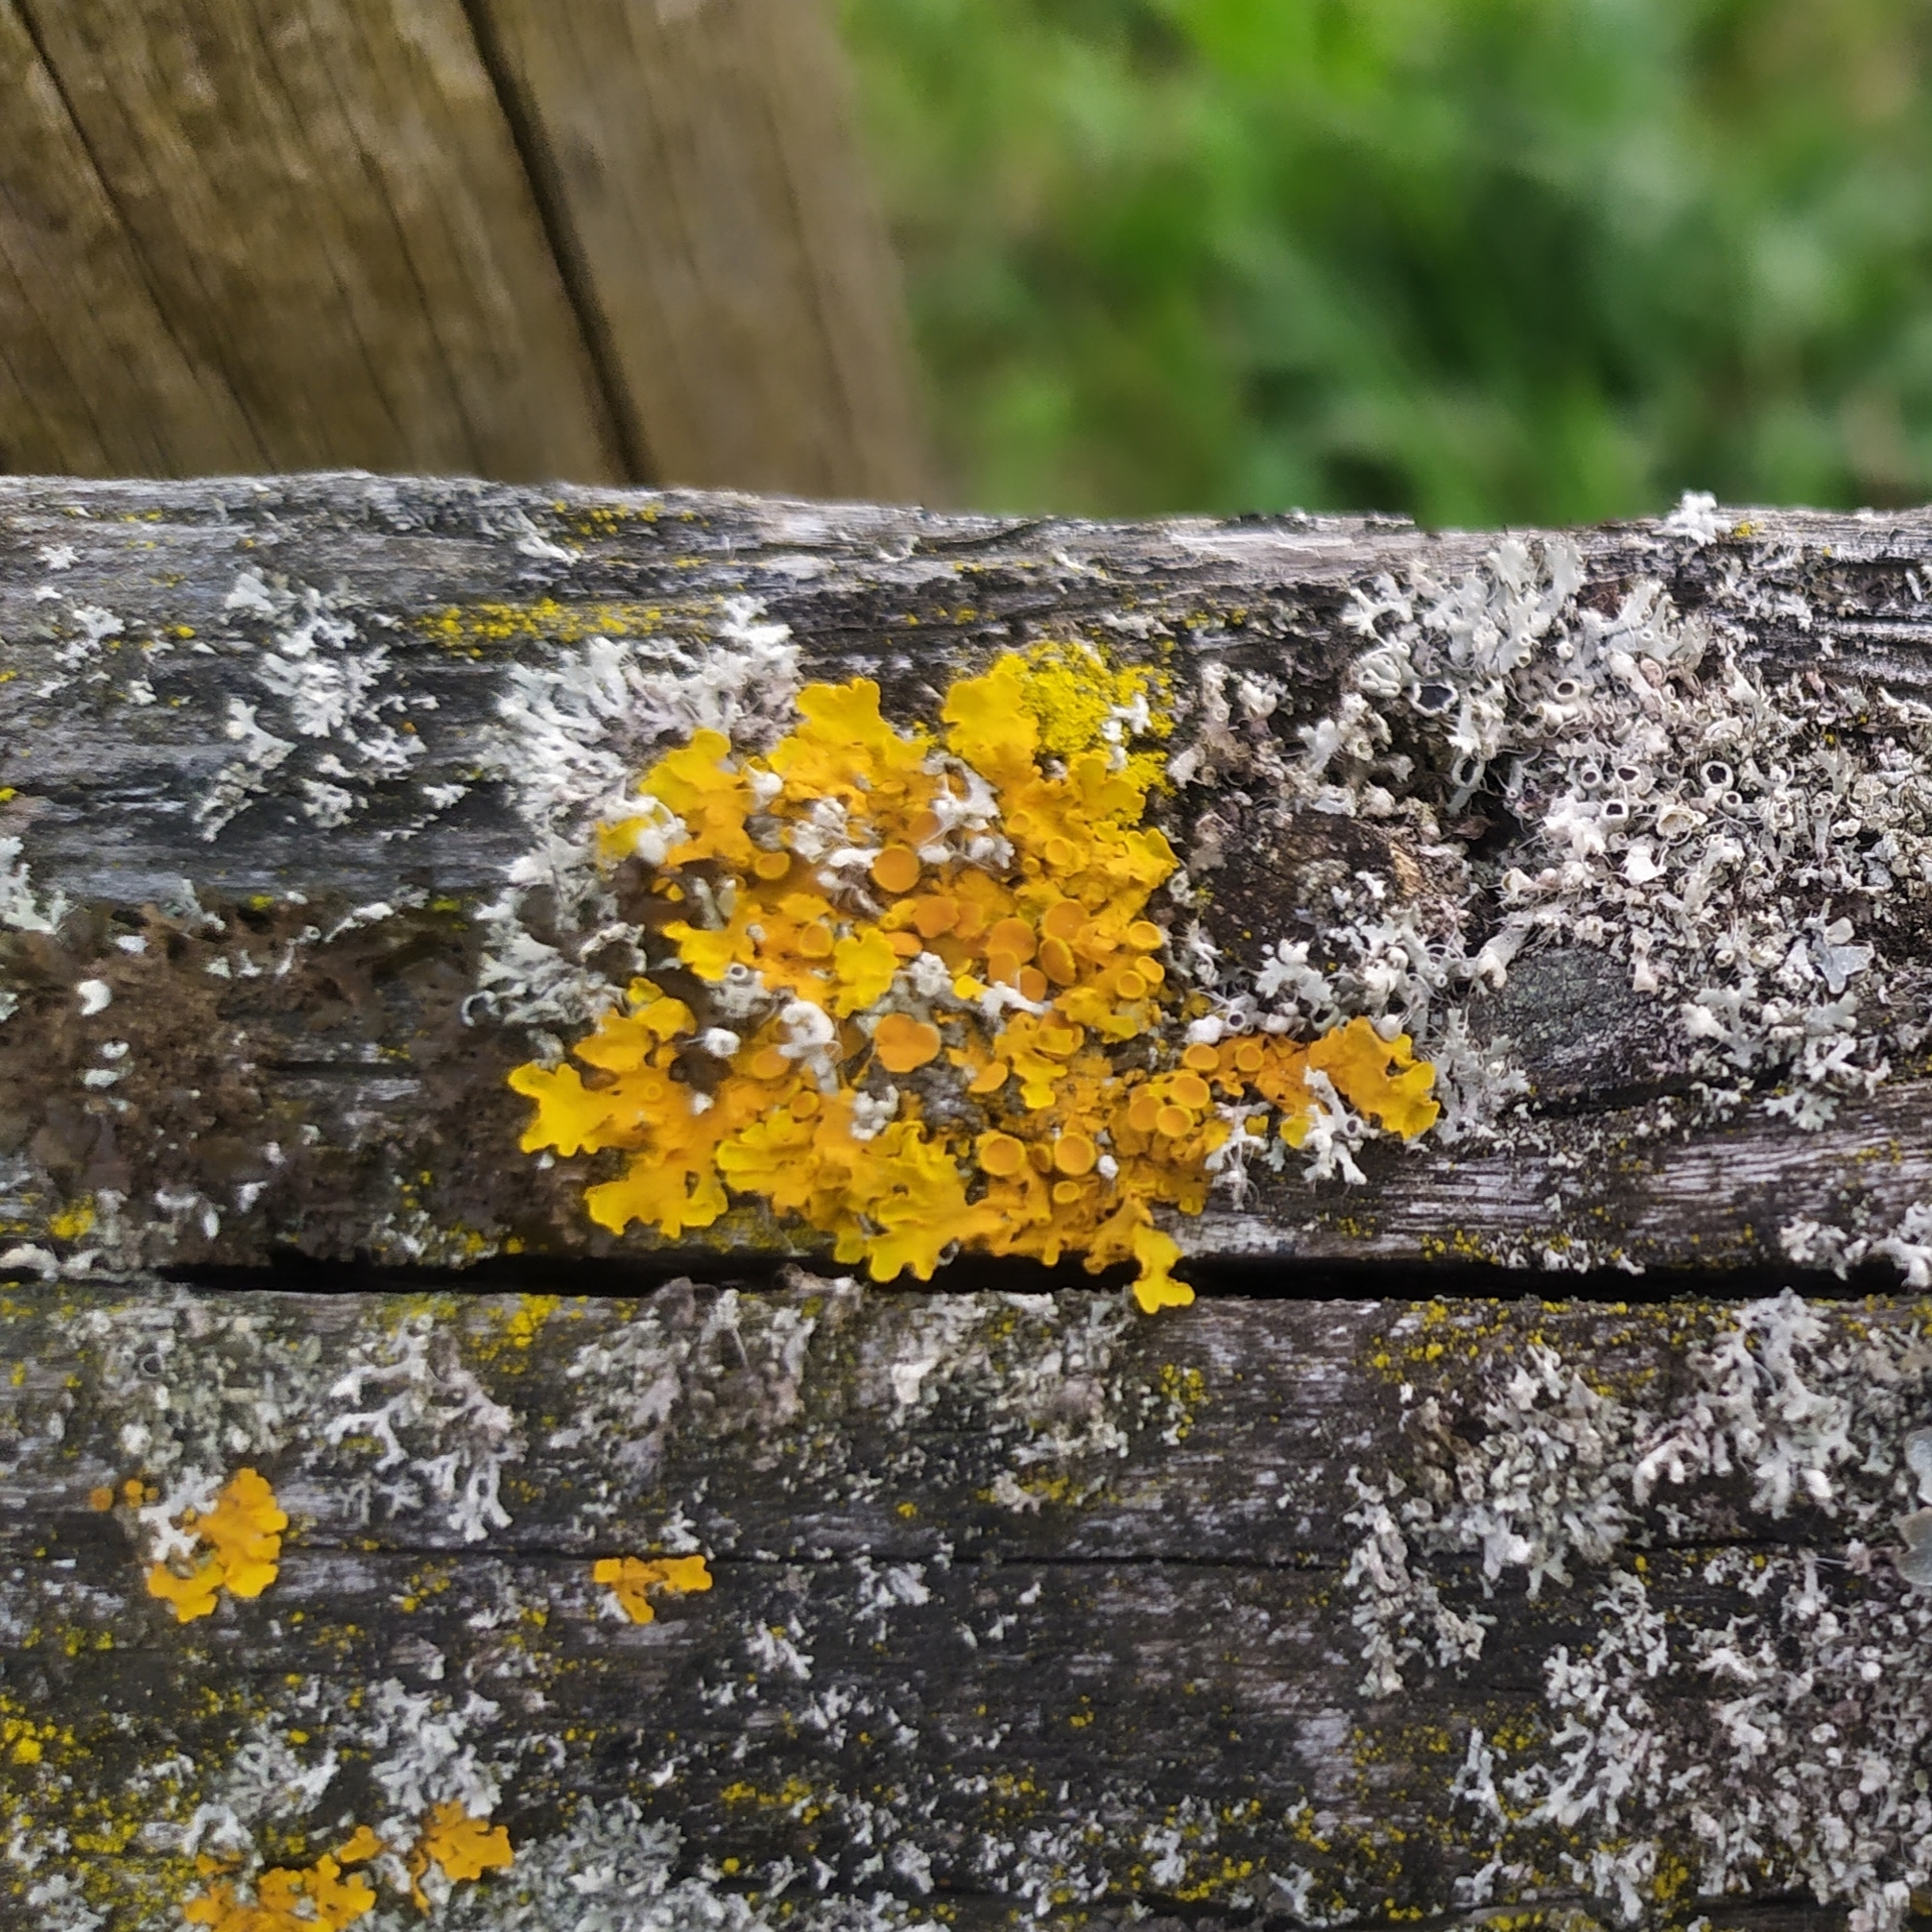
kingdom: Fungi
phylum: Ascomycota
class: Lecanoromycetes
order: Teloschistales
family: Teloschistaceae
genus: Xanthoria
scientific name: Xanthoria parietina
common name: Common orange lichen
